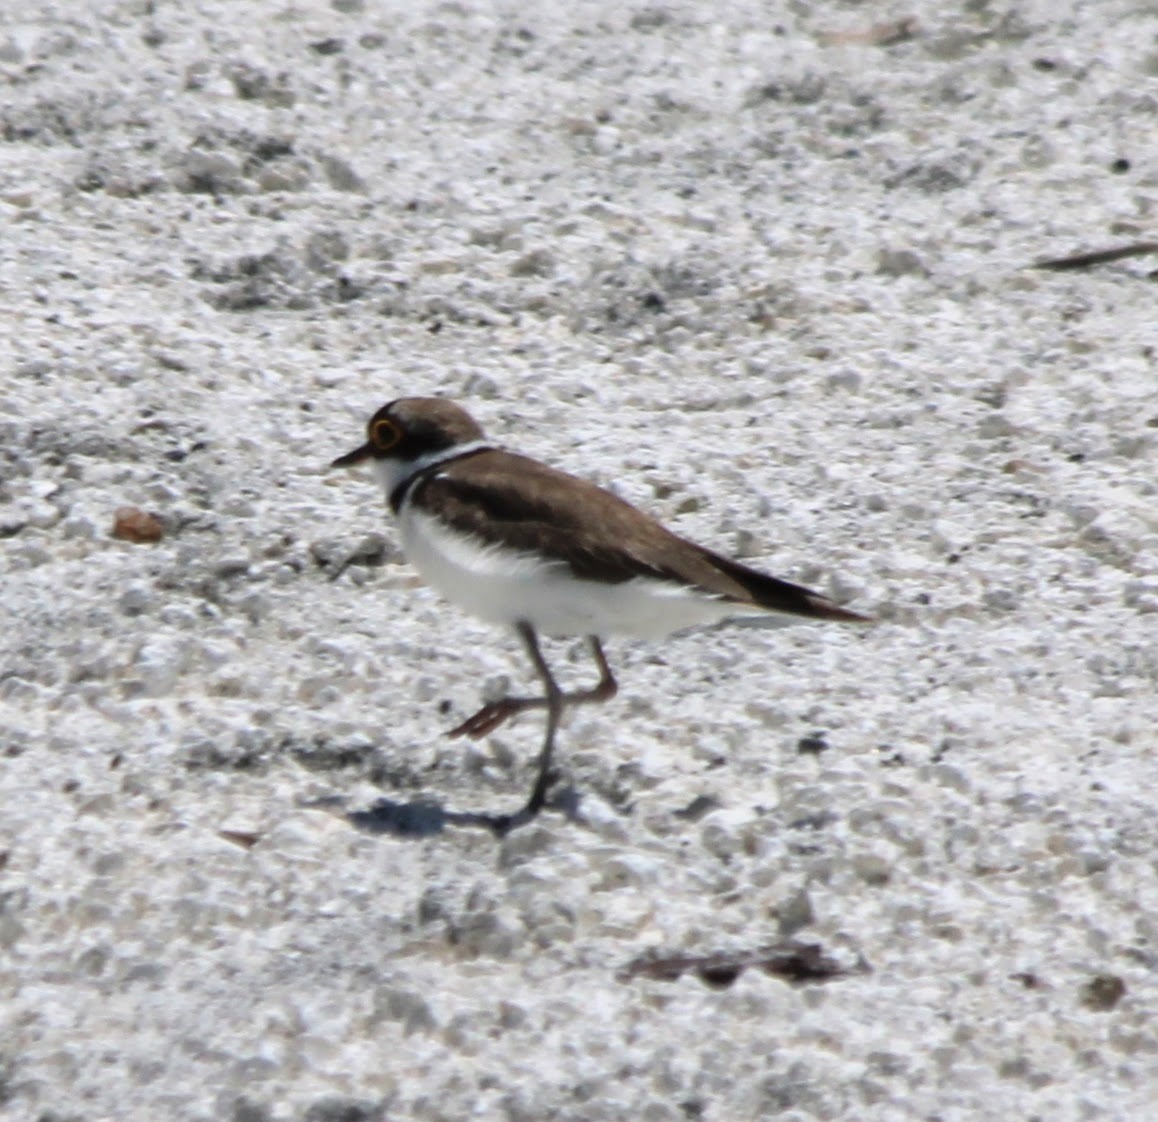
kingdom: Animalia
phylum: Chordata
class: Aves
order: Charadriiformes
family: Charadriidae
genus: Charadrius
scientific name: Charadrius dubius
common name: Little ringed plover
